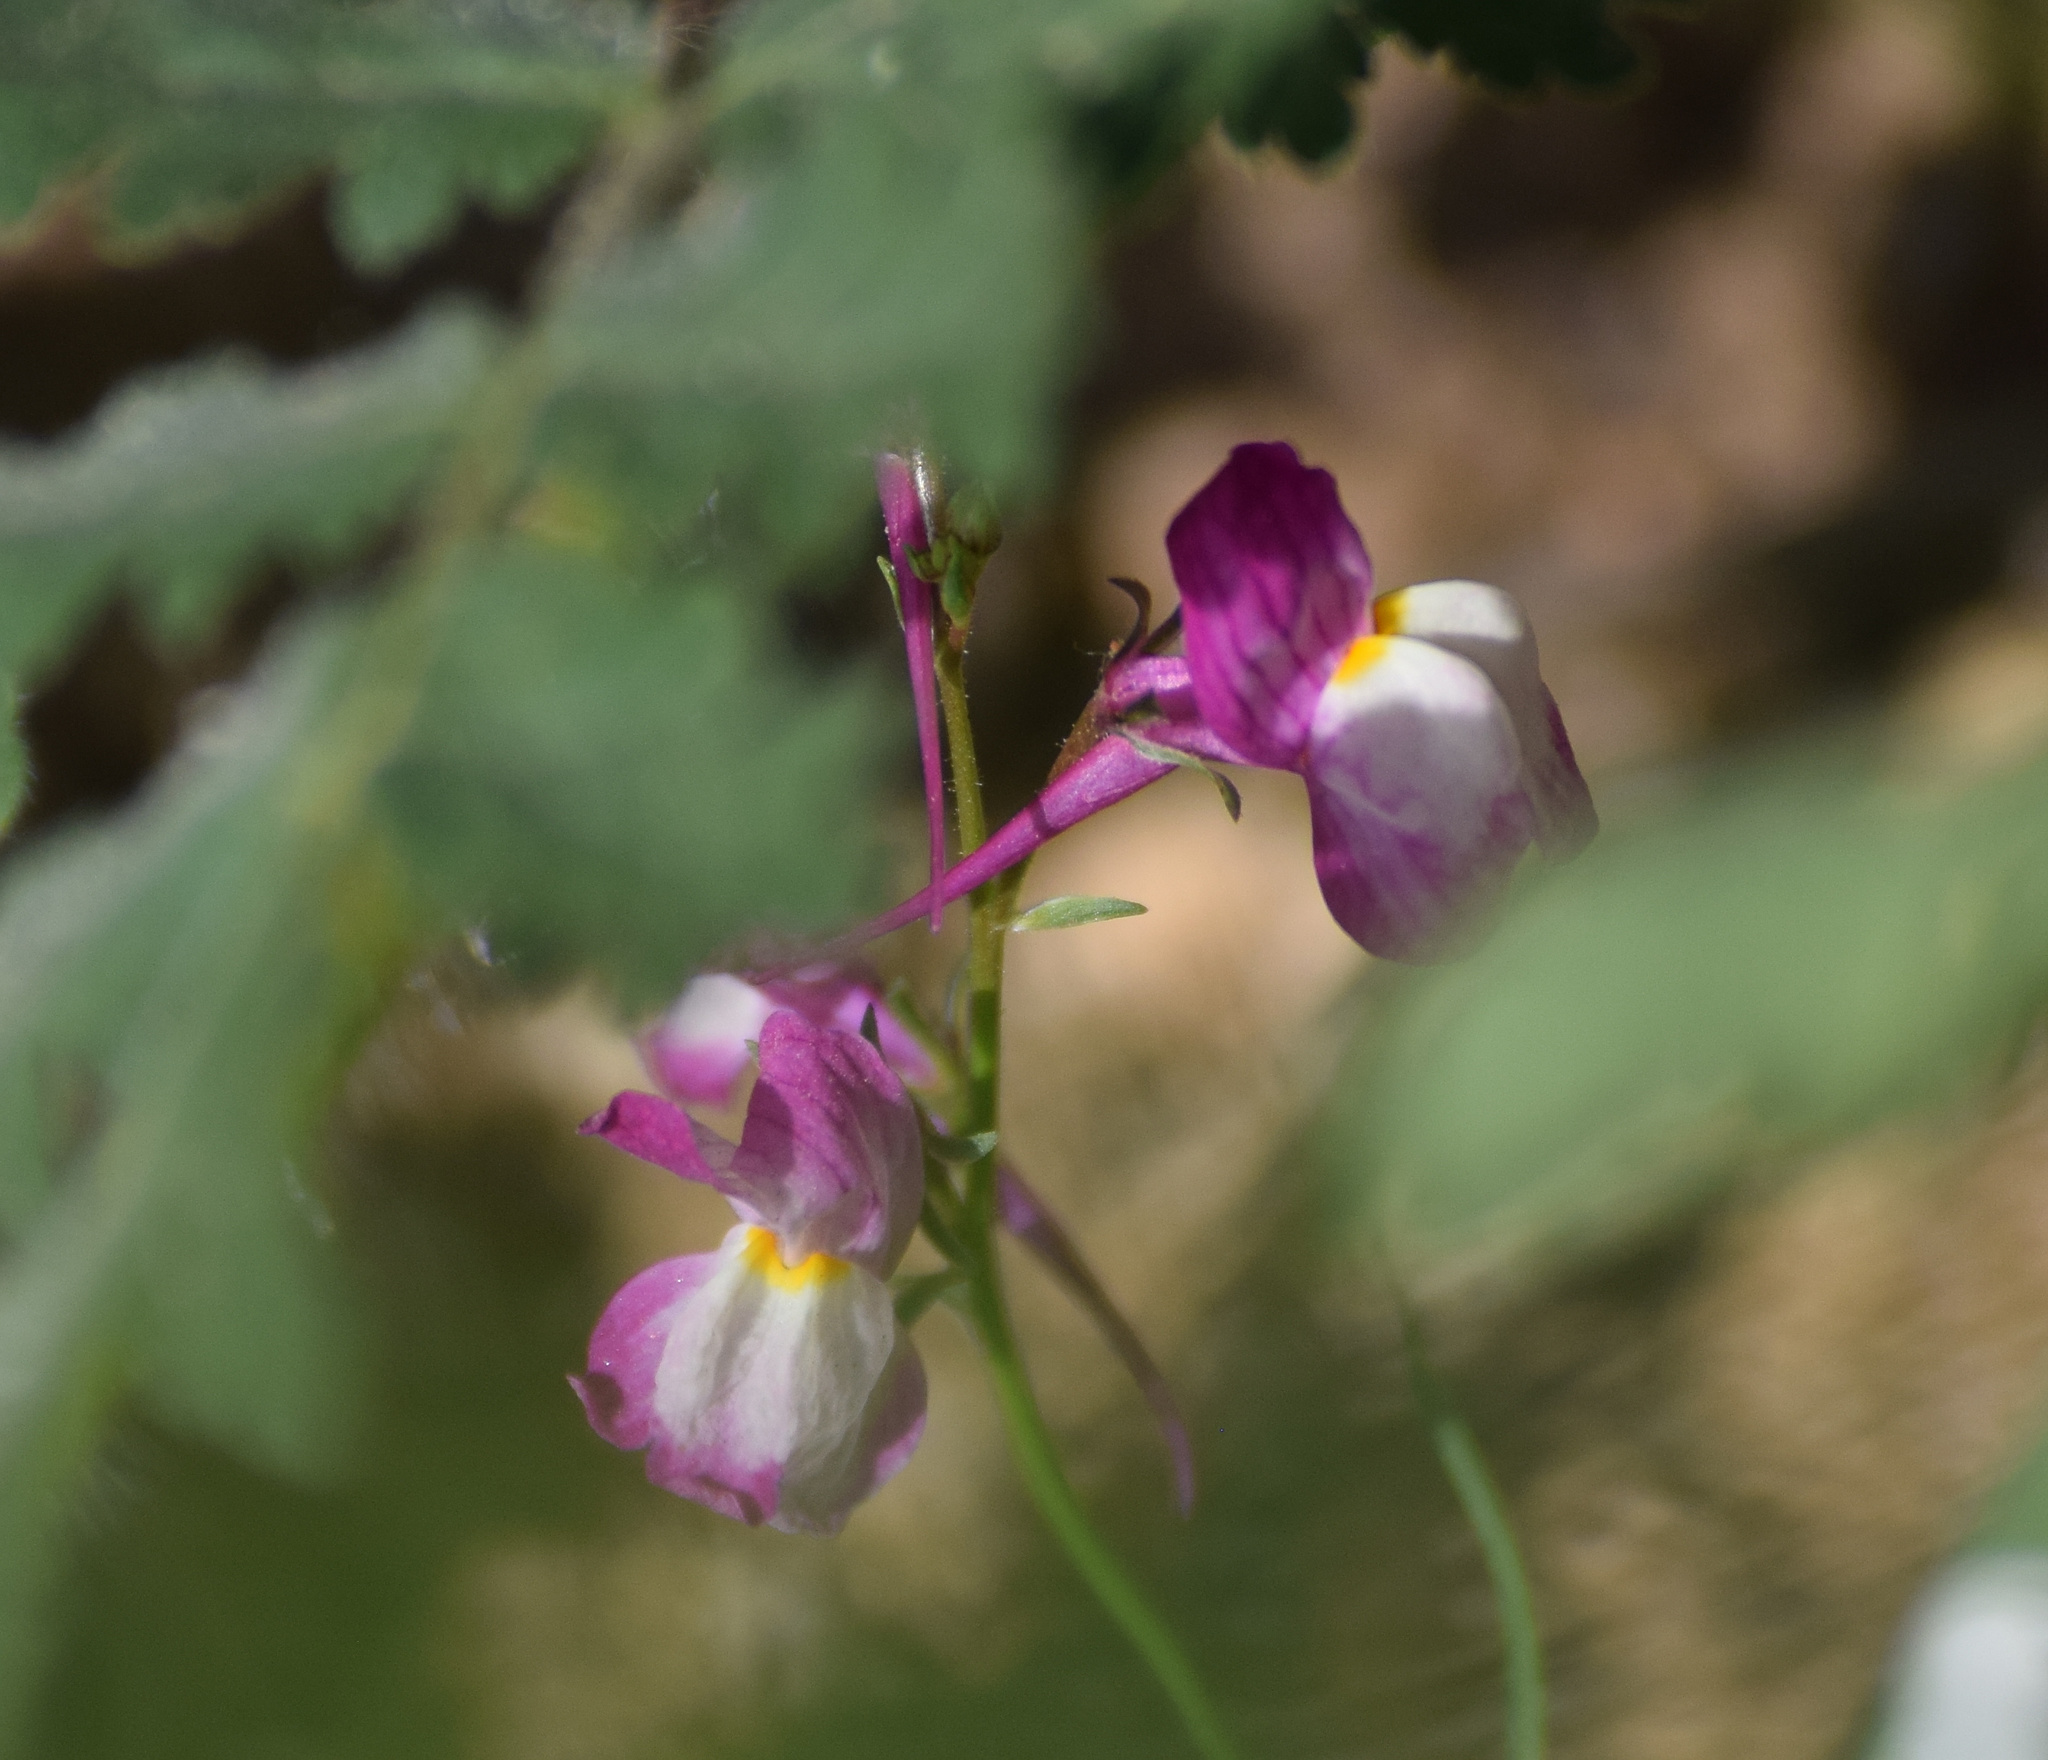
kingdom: Plantae
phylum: Tracheophyta
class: Magnoliopsida
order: Lamiales
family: Plantaginaceae
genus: Linaria
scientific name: Linaria maroccana
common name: Moroccan toadflax
